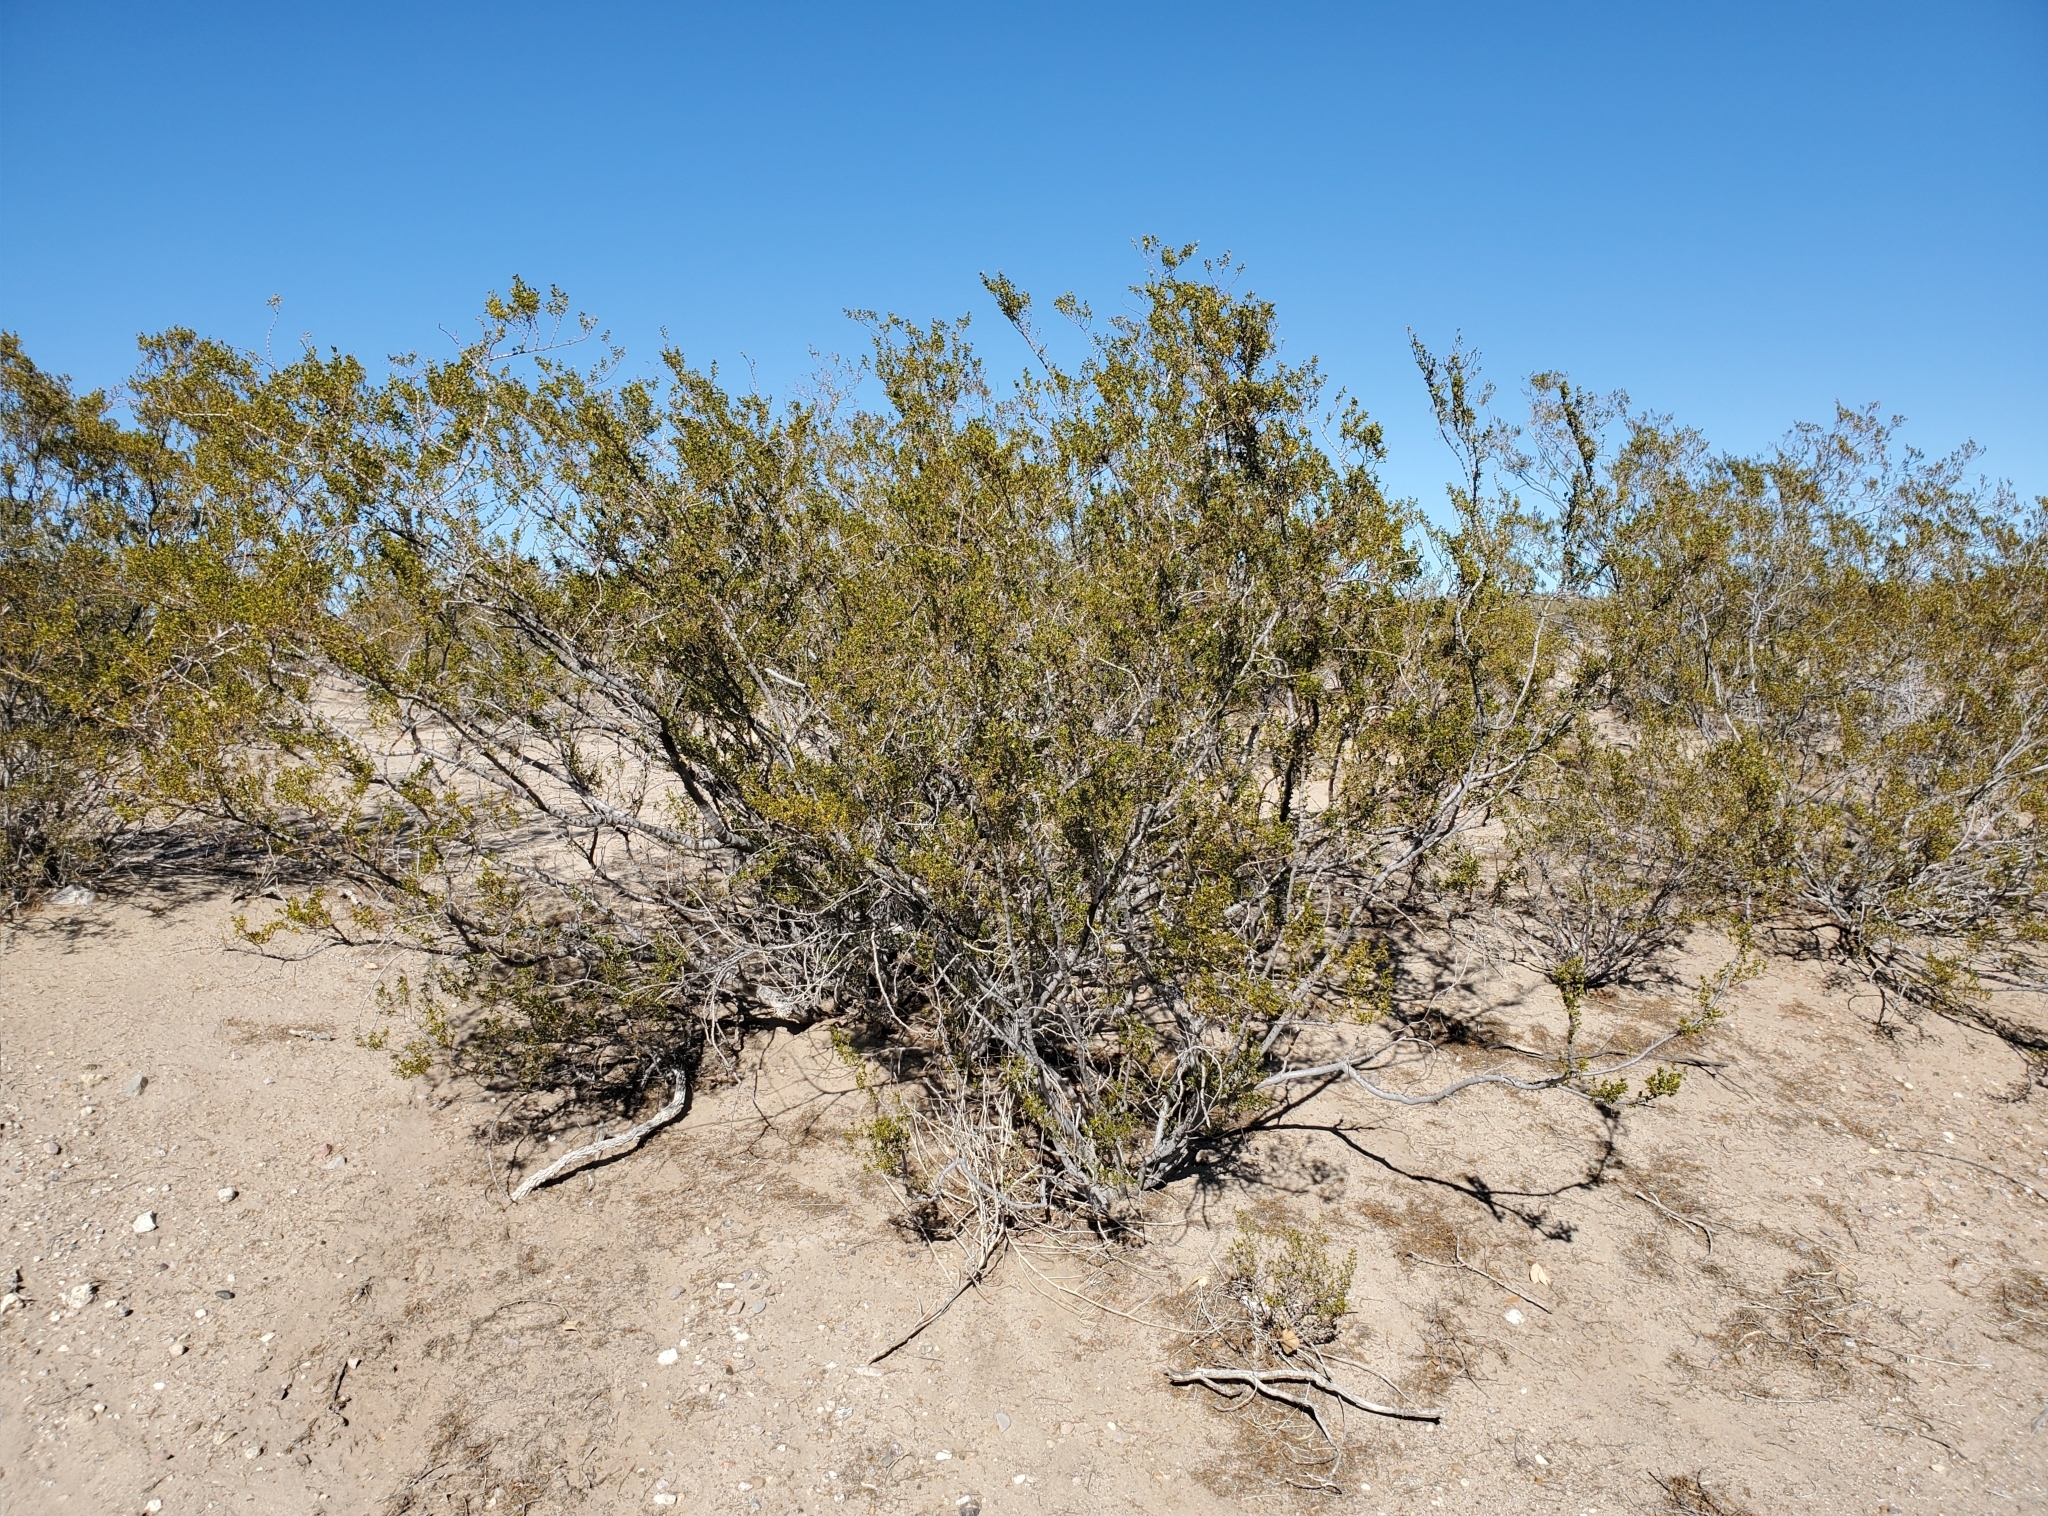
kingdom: Plantae
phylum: Tracheophyta
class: Magnoliopsida
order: Zygophyllales
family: Zygophyllaceae
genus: Larrea
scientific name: Larrea tridentata
